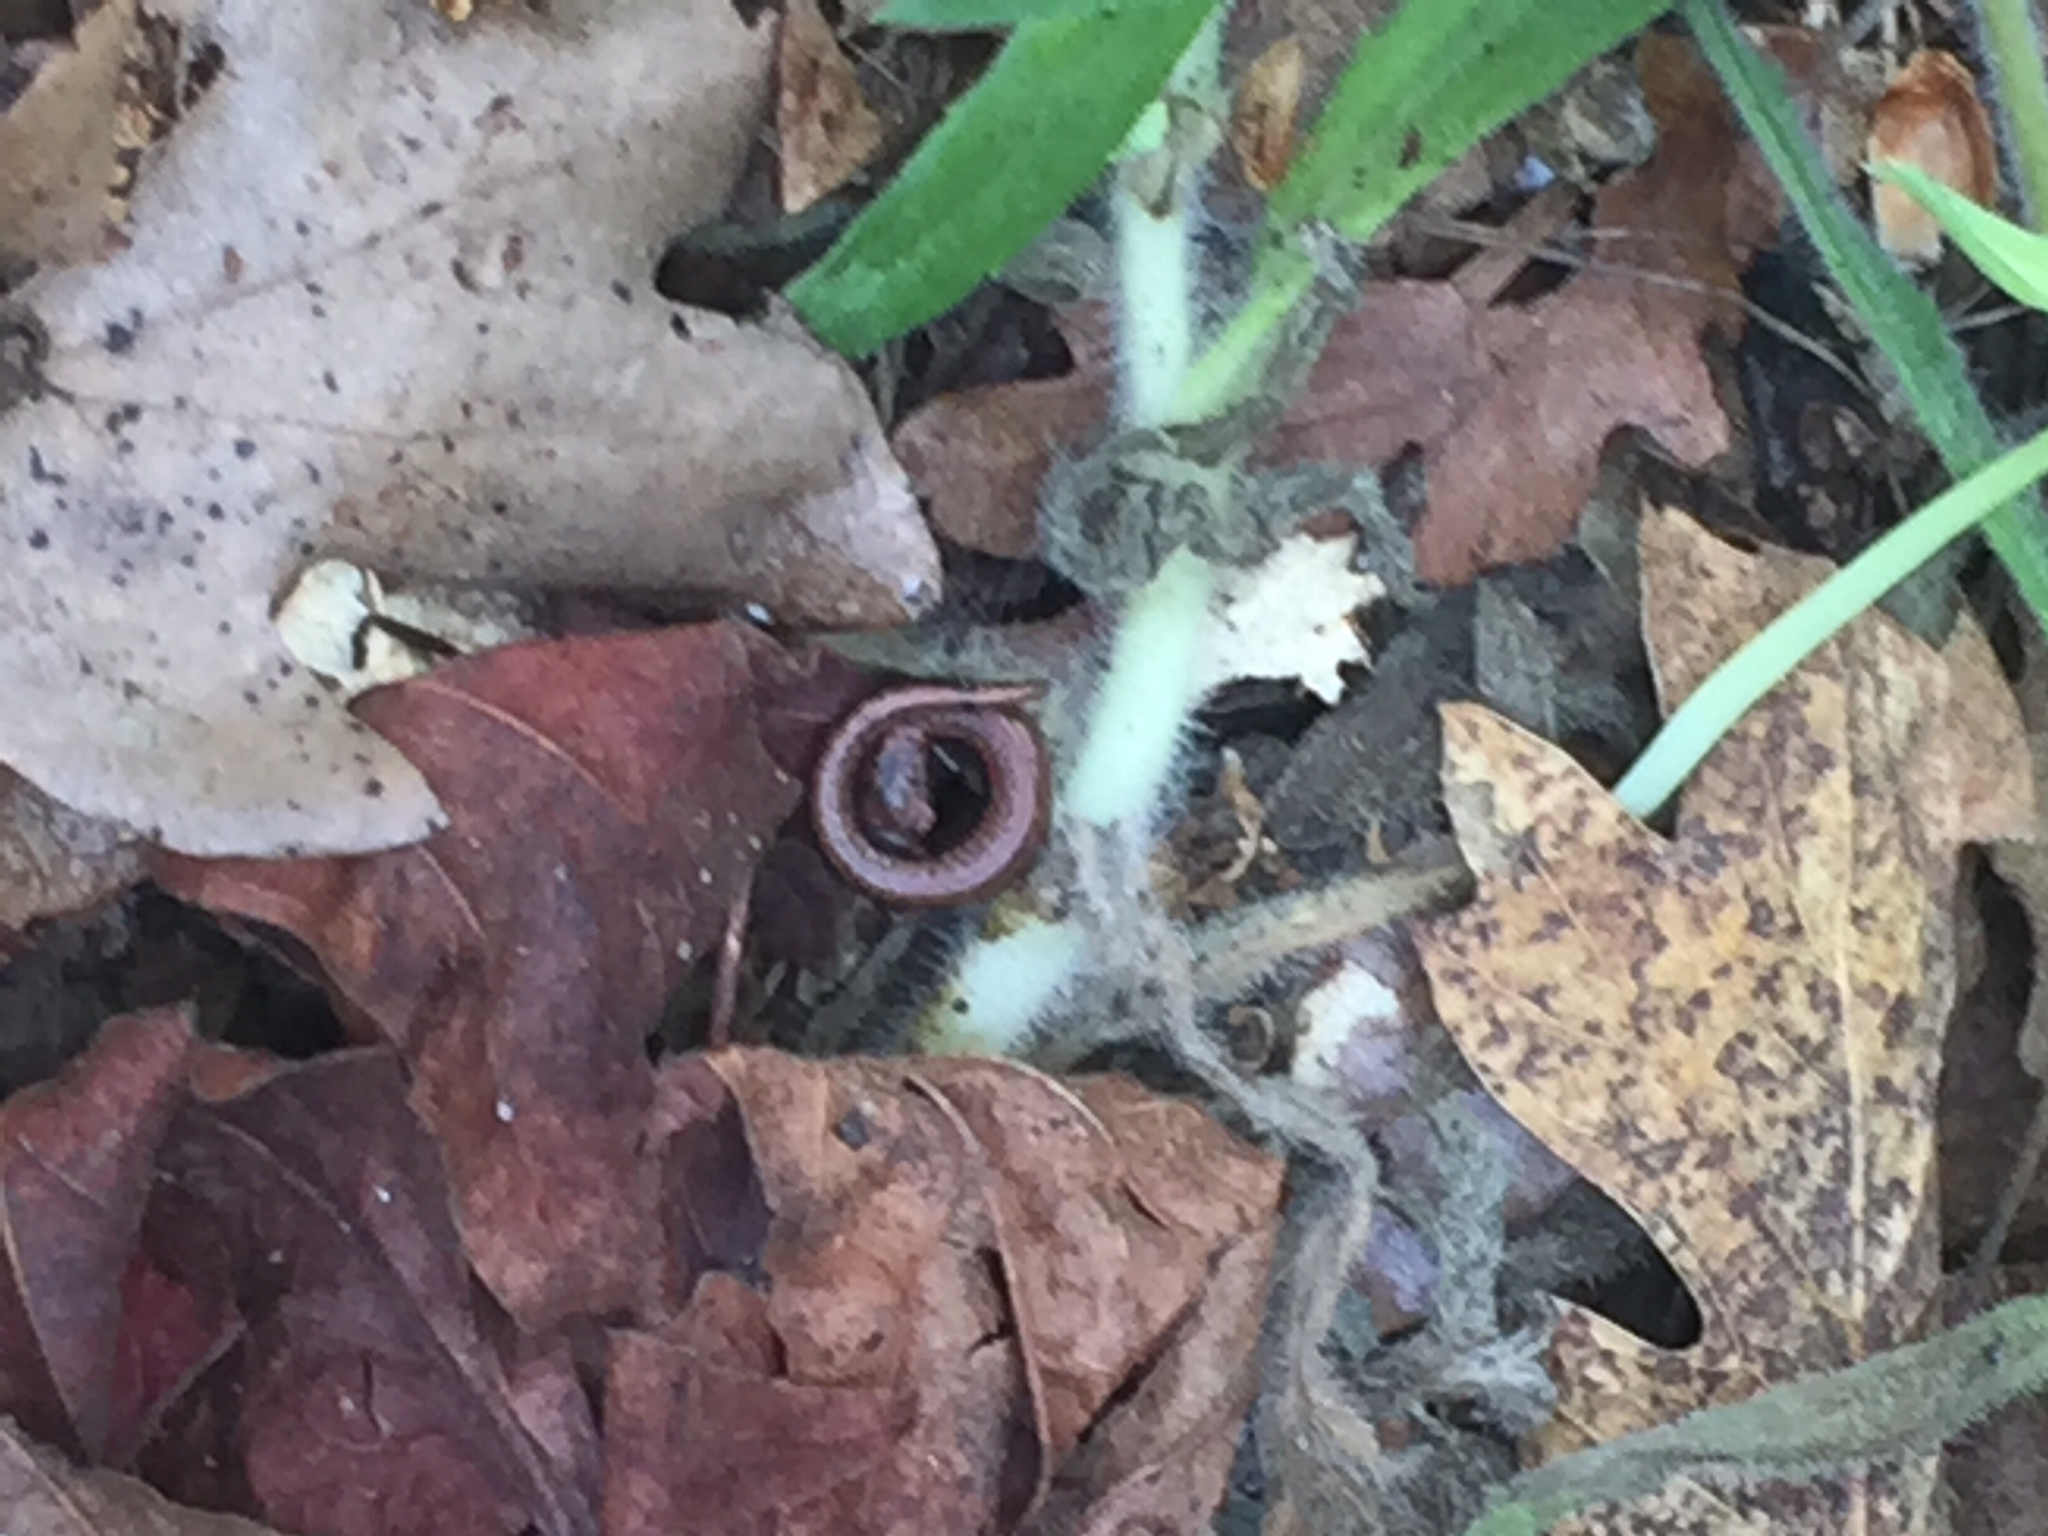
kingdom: Animalia
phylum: Chordata
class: Amphibia
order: Caudata
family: Plethodontidae
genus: Batrachoseps
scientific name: Batrachoseps attenuatus
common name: California slender salamander
